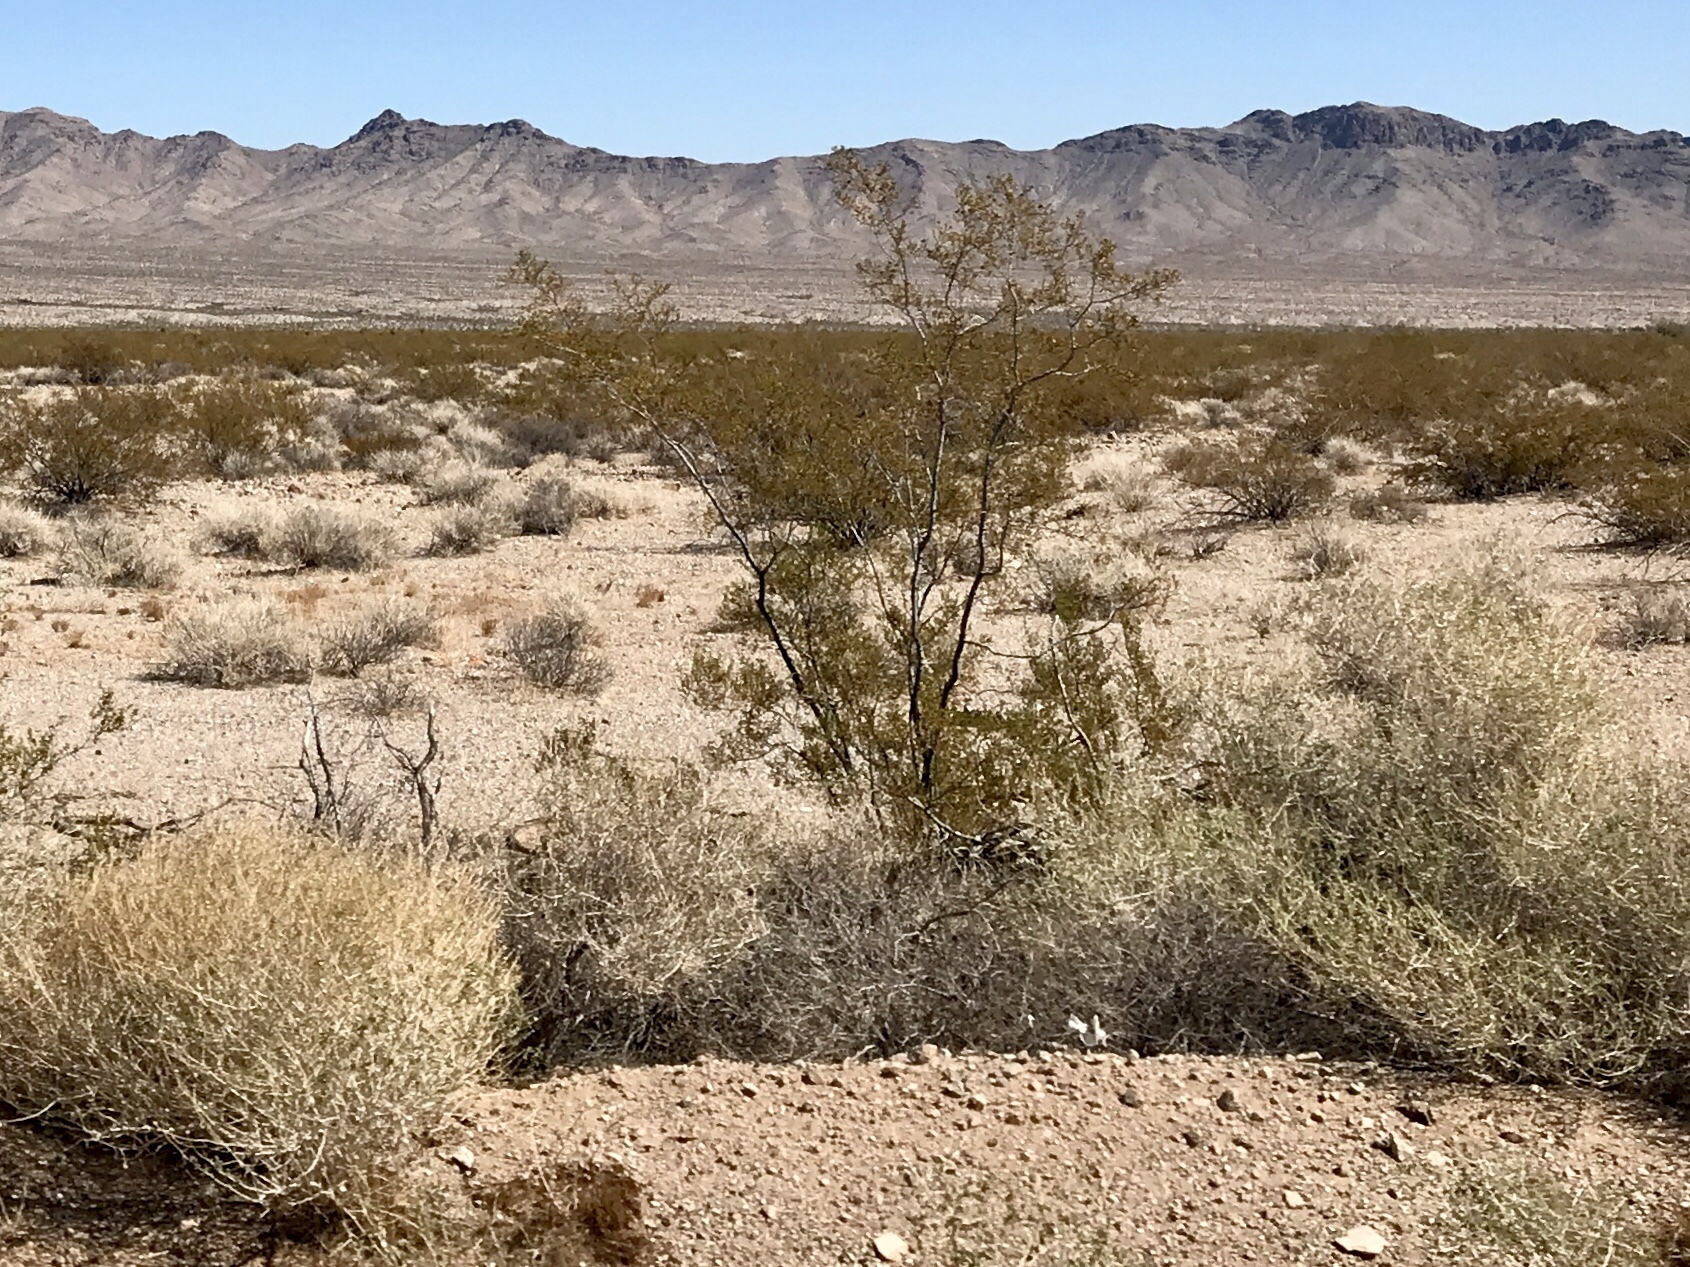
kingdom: Plantae
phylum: Tracheophyta
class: Magnoliopsida
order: Zygophyllales
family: Zygophyllaceae
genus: Larrea
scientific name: Larrea tridentata
